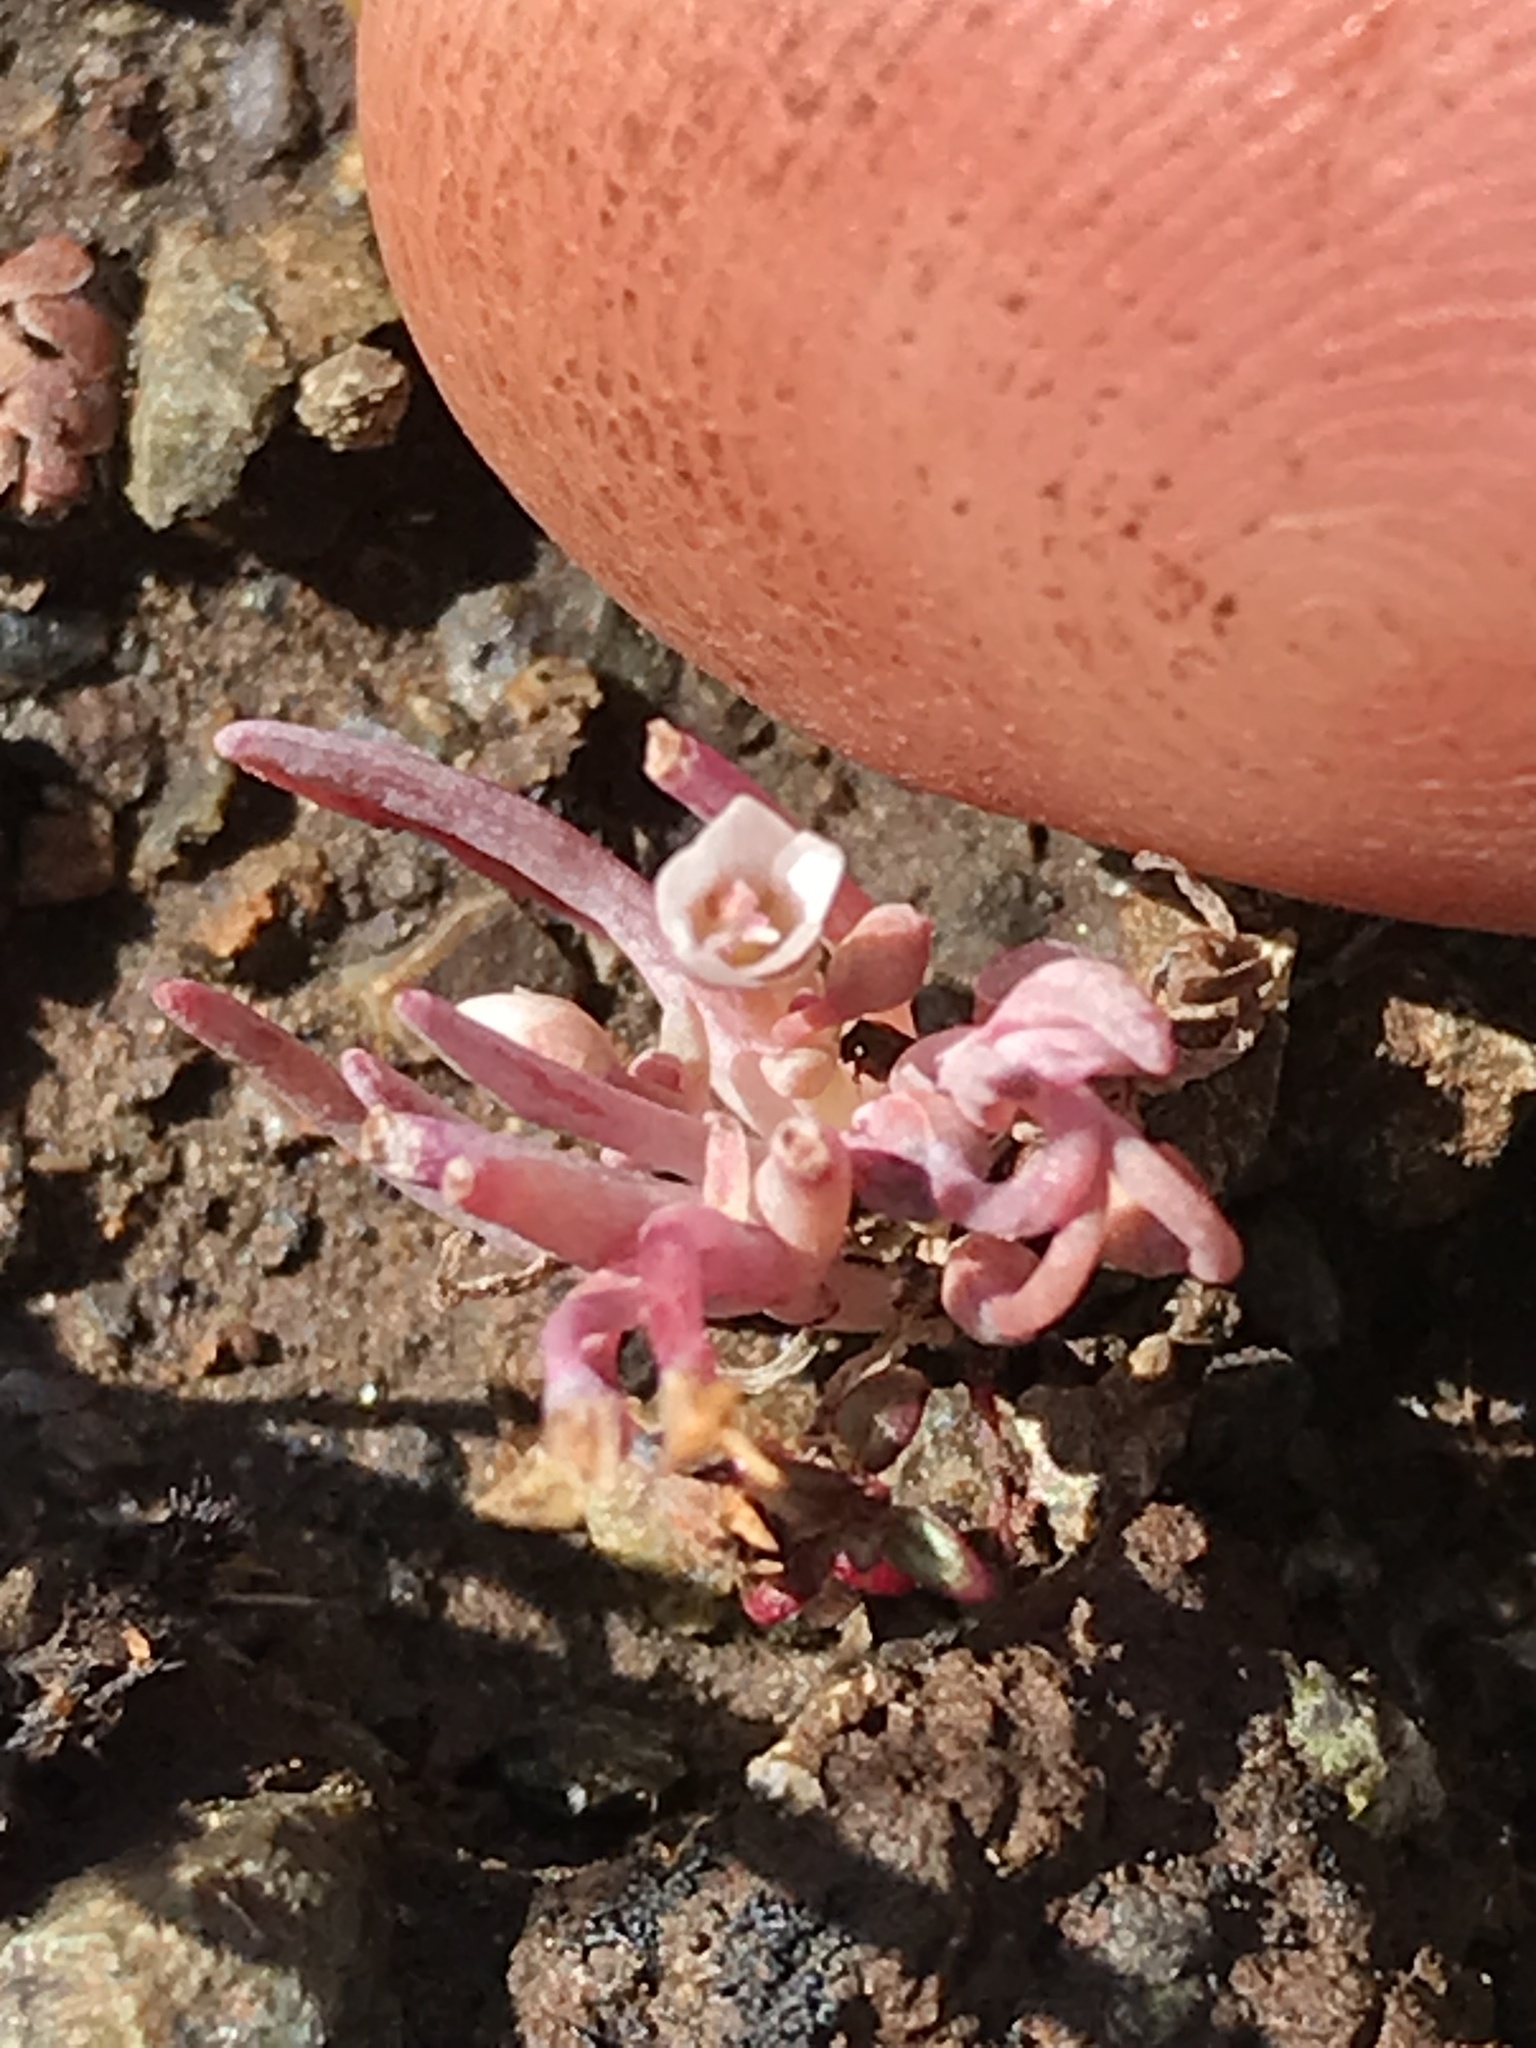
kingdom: Plantae
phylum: Tracheophyta
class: Magnoliopsida
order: Caryophyllales
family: Montiaceae
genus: Claytonia
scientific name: Claytonia exigua
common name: Pale spring beauty
